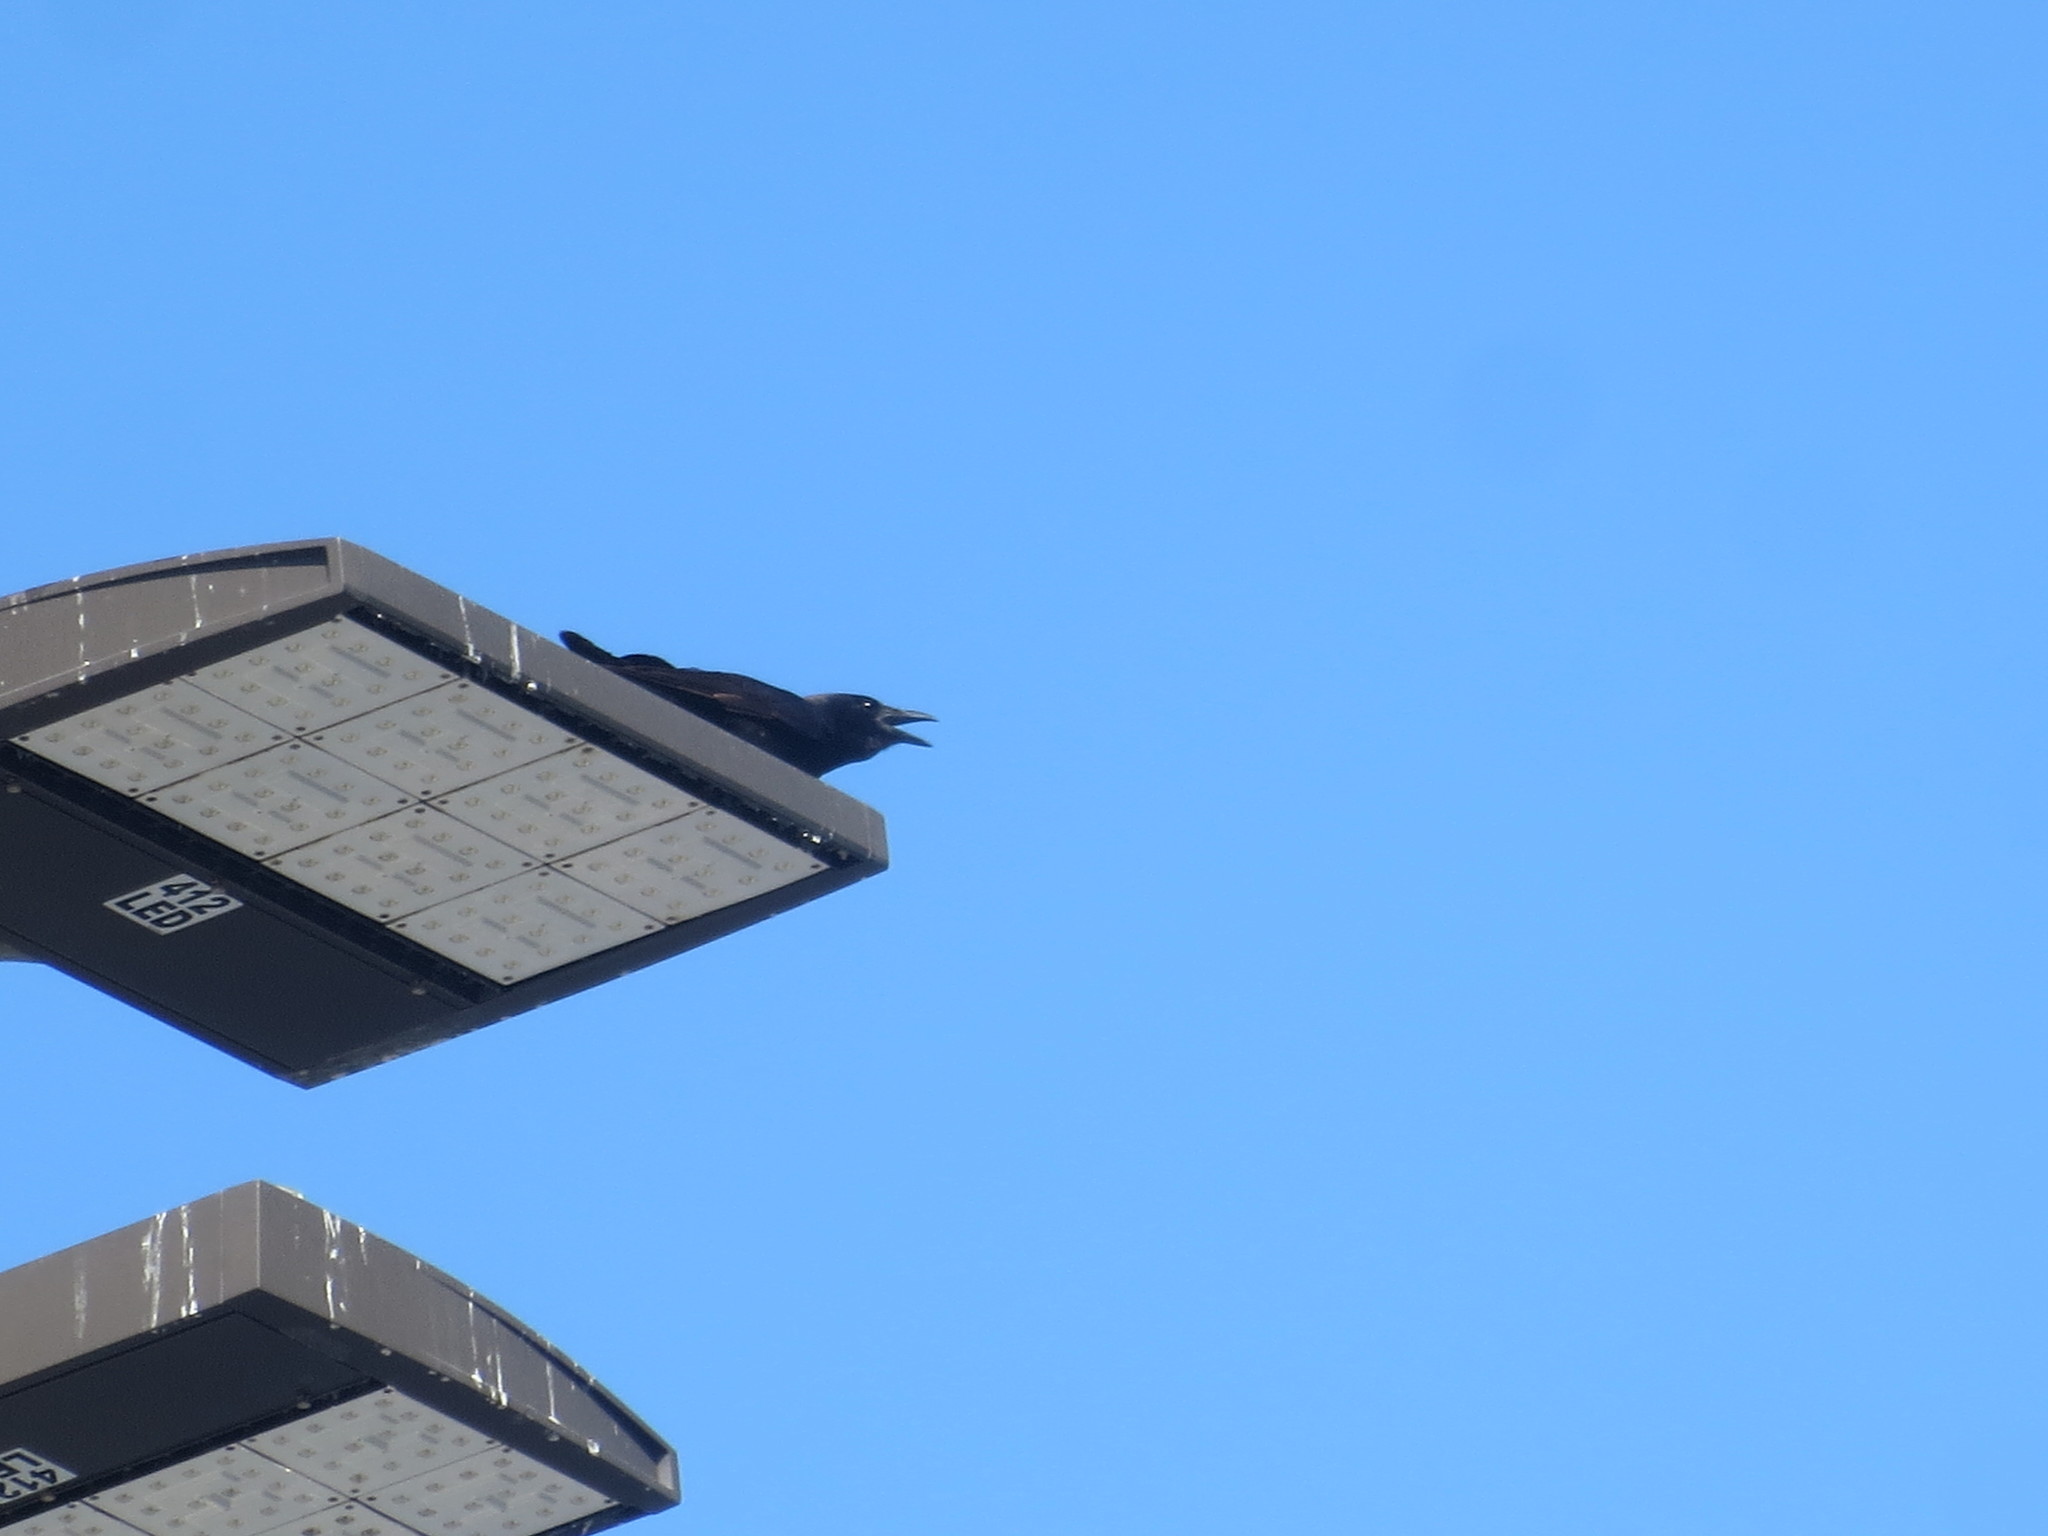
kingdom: Animalia
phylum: Chordata
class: Aves
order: Passeriformes
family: Corvidae
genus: Corvus
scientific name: Corvus ossifragus
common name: Fish crow
